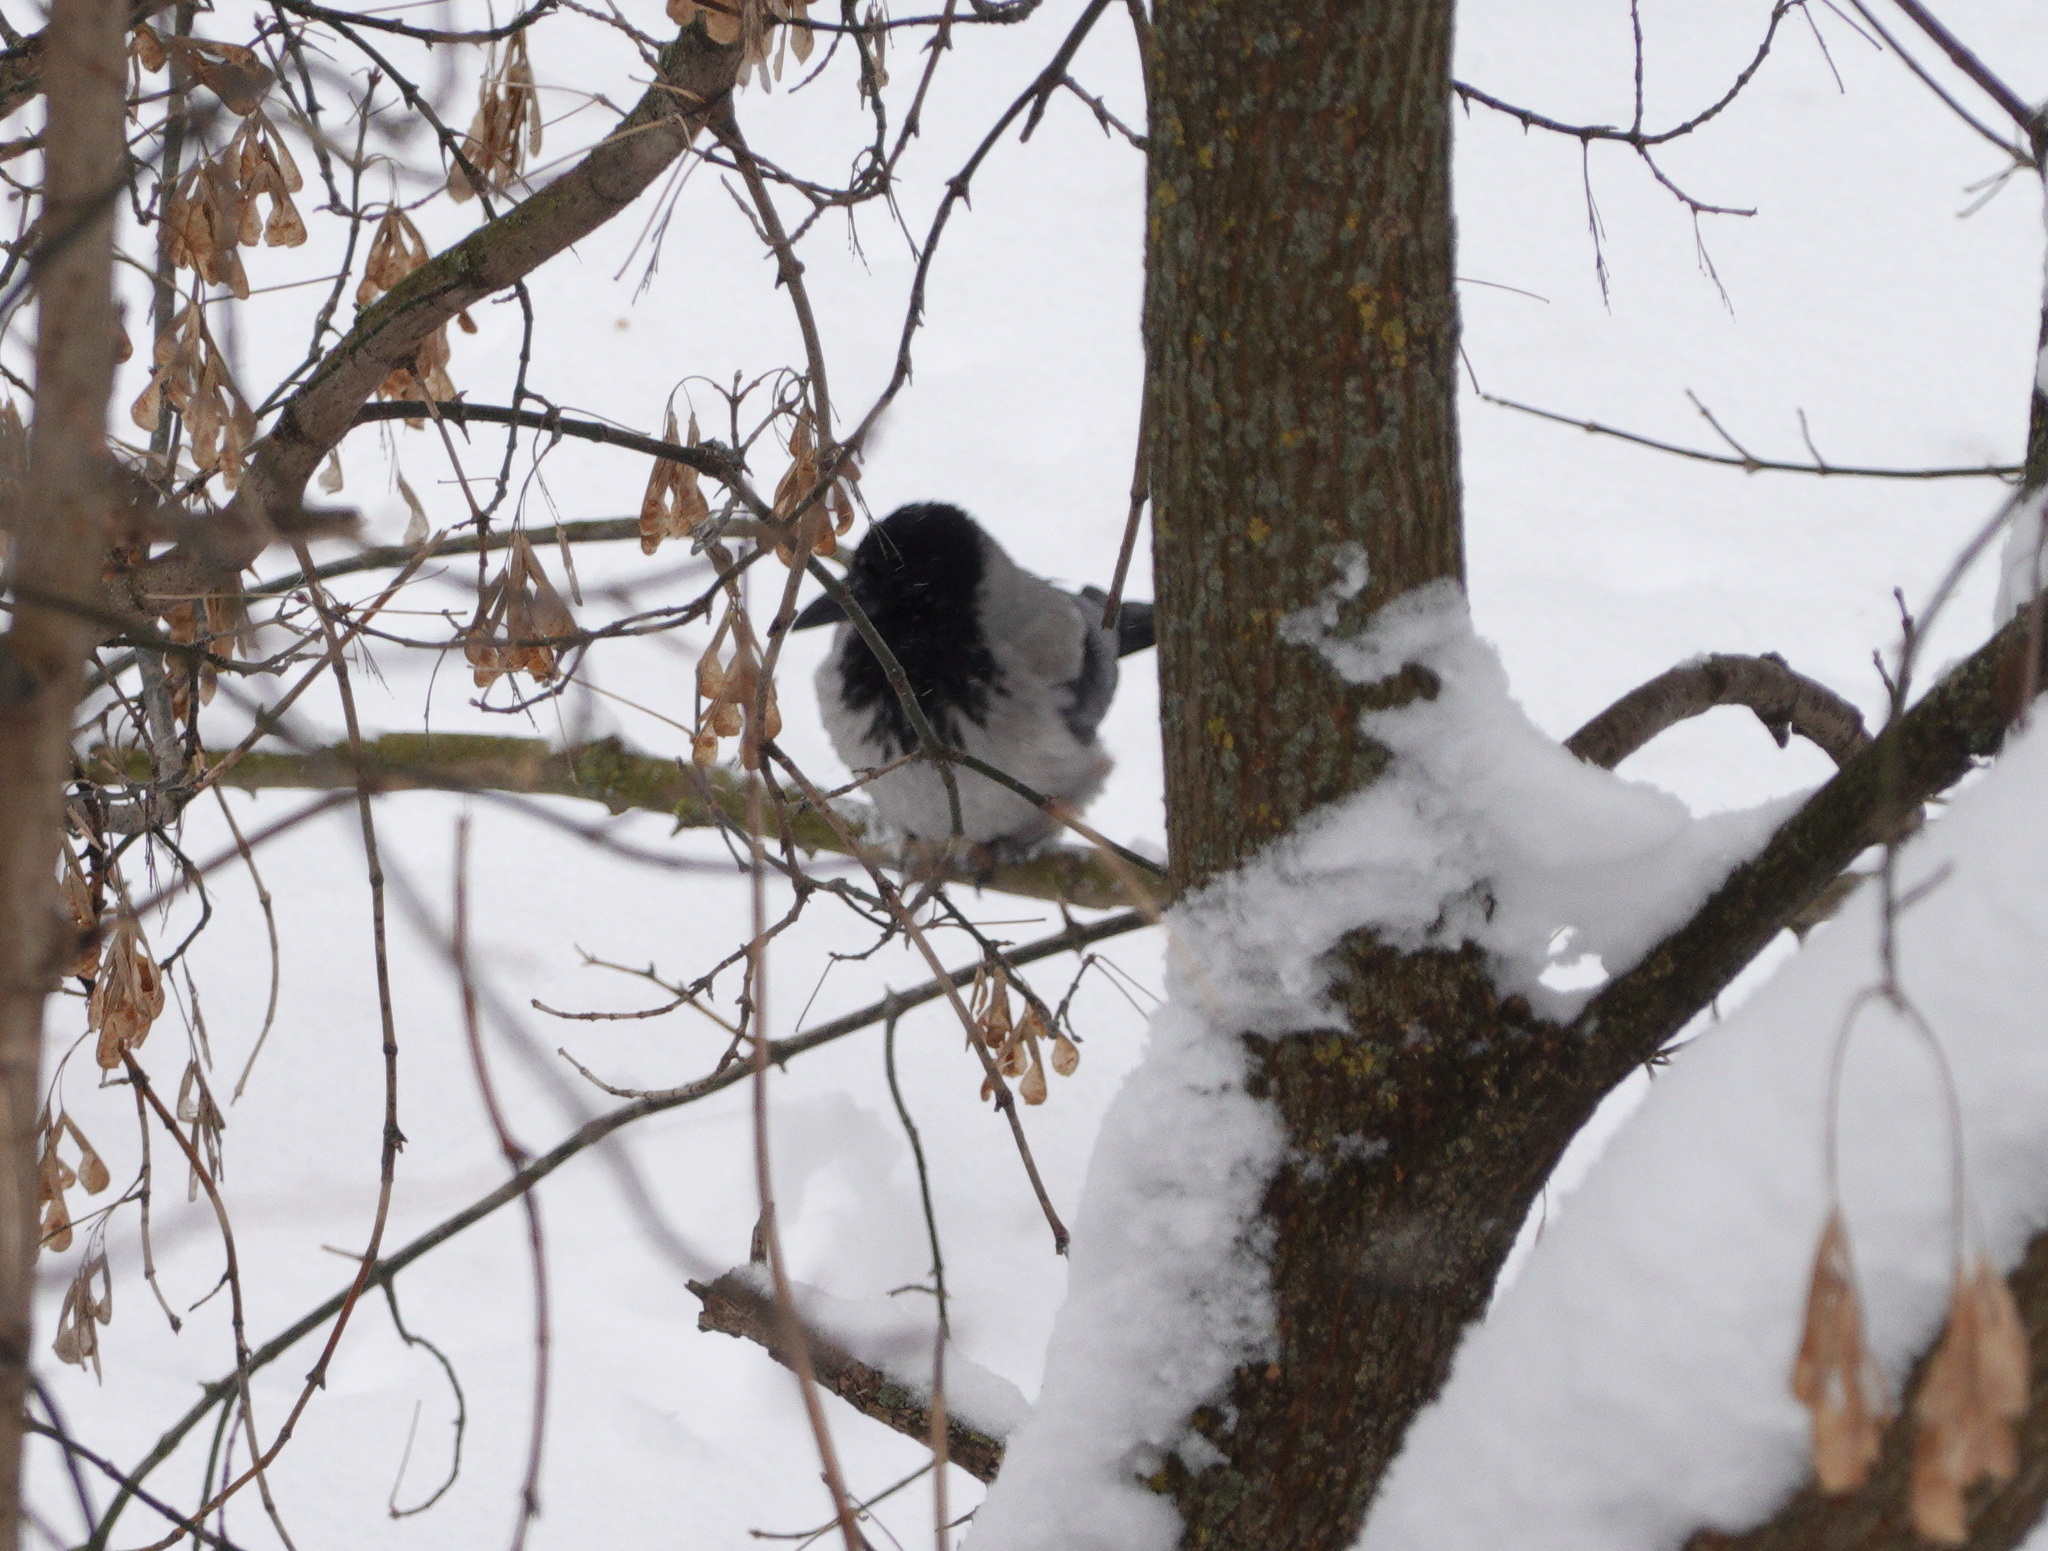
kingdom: Animalia
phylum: Chordata
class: Aves
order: Passeriformes
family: Corvidae
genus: Corvus
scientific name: Corvus cornix
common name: Hooded crow
